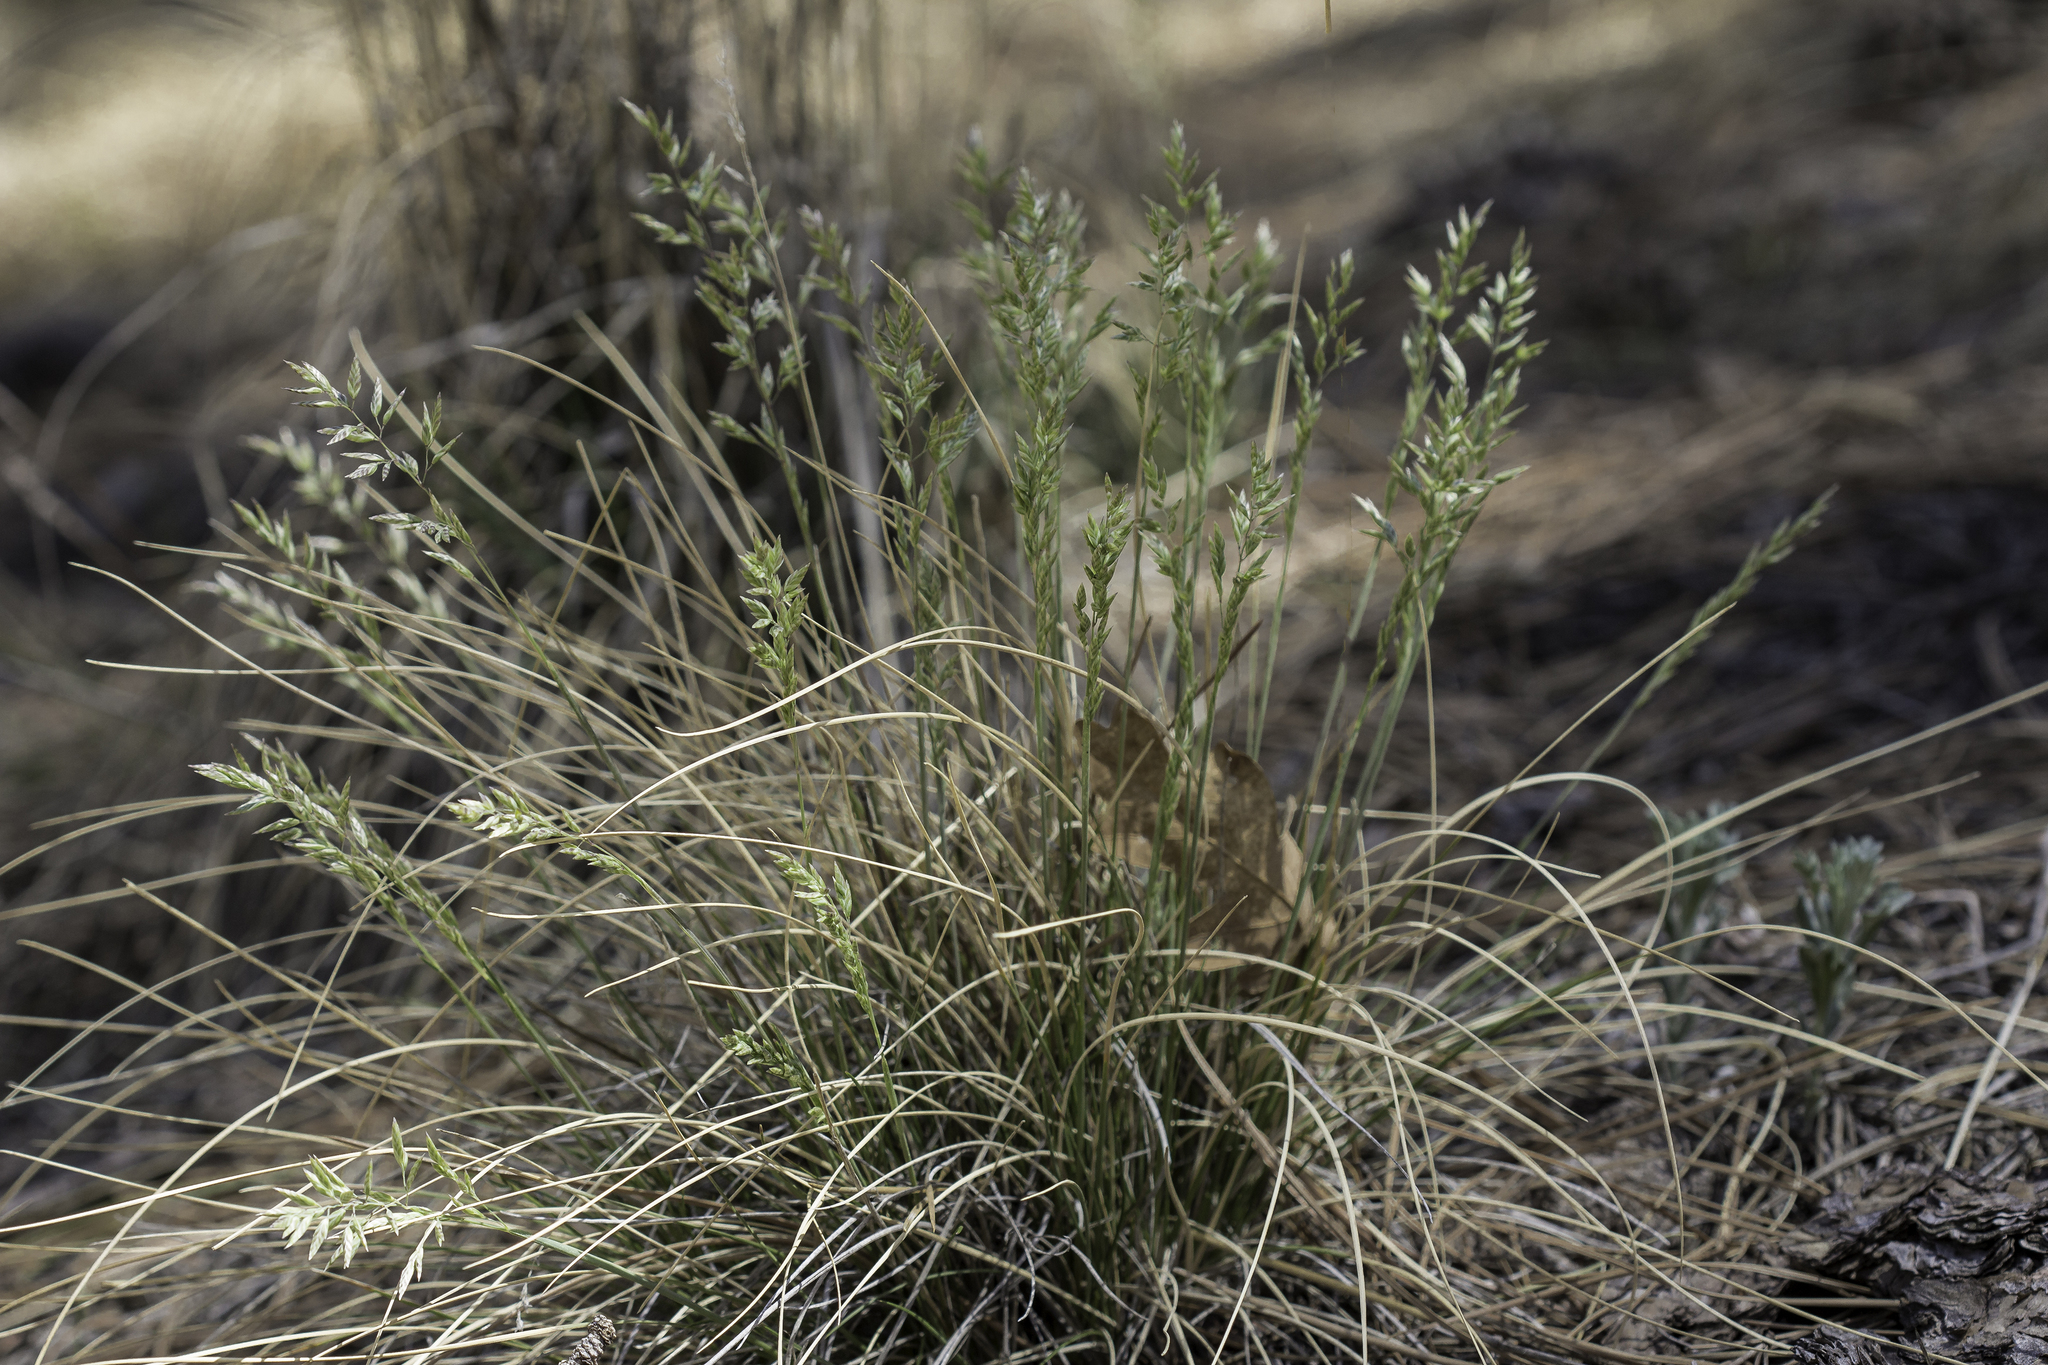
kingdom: Plantae
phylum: Tracheophyta
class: Liliopsida
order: Poales
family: Poaceae
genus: Poa
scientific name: Poa fendleriana
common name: Mutton bluegrass
